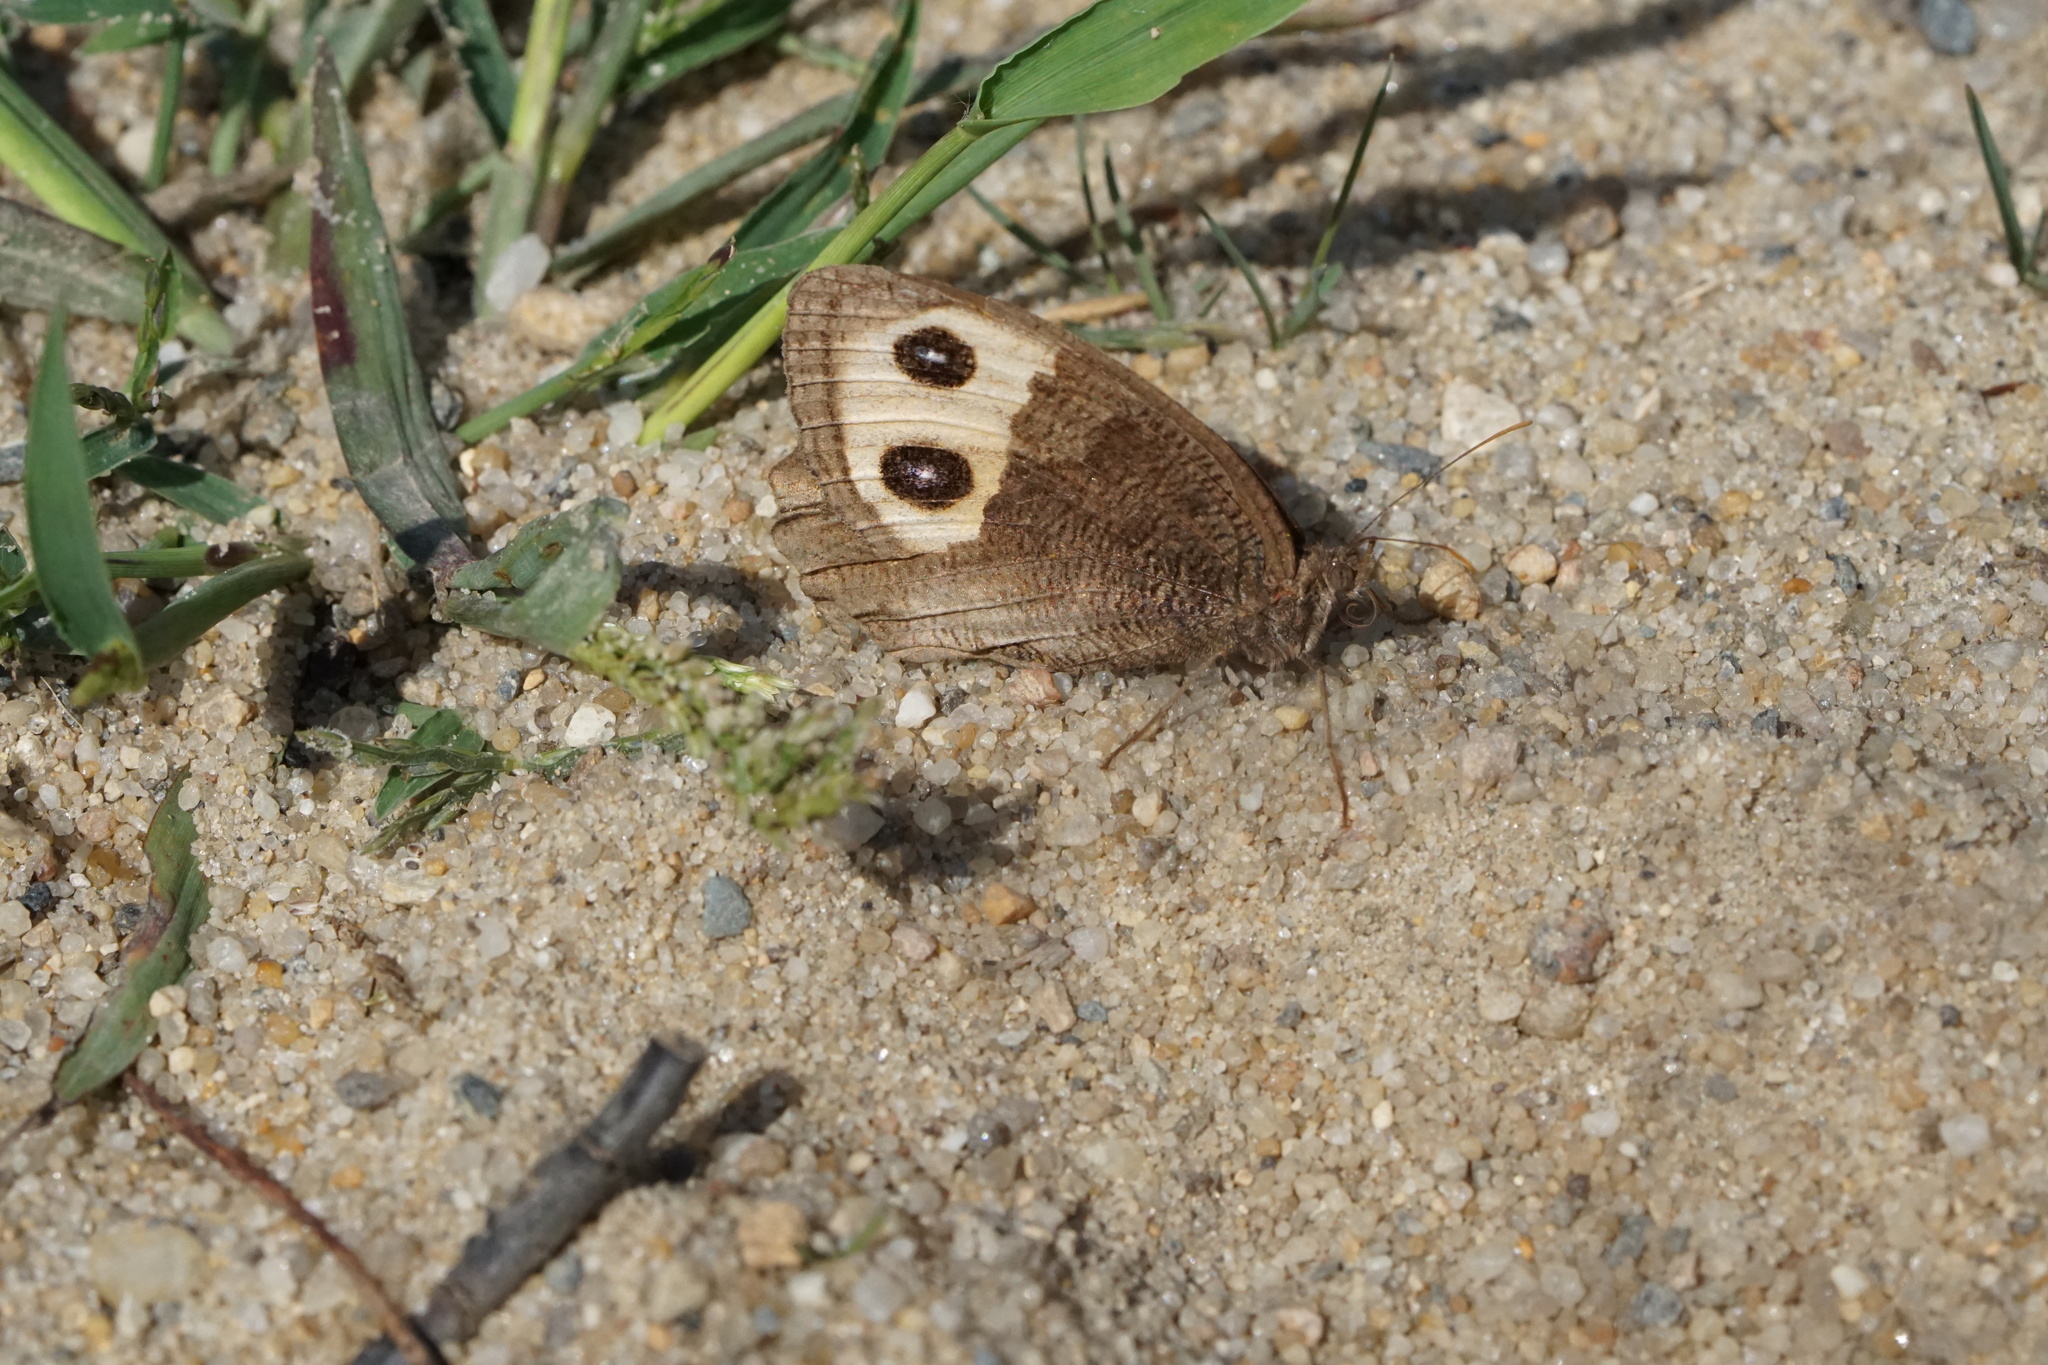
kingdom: Animalia
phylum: Arthropoda
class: Insecta
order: Lepidoptera
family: Nymphalidae
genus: Cercyonis
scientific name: Cercyonis pegala
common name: Common wood-nymph
